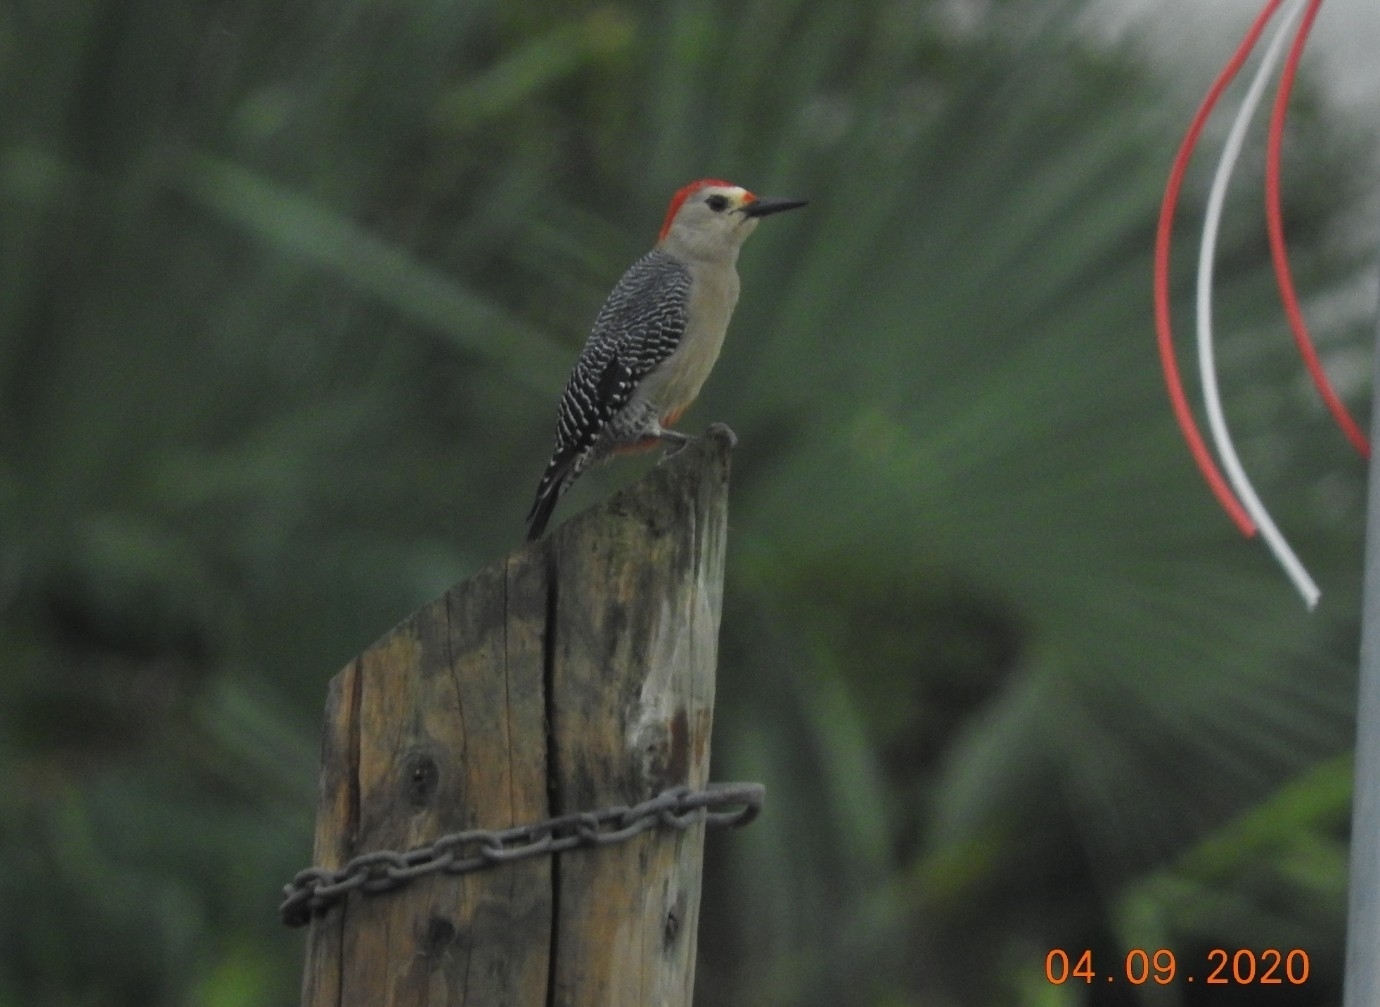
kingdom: Animalia
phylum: Chordata
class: Aves
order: Piciformes
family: Picidae
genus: Melanerpes
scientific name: Melanerpes aurifrons
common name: Golden-fronted woodpecker
